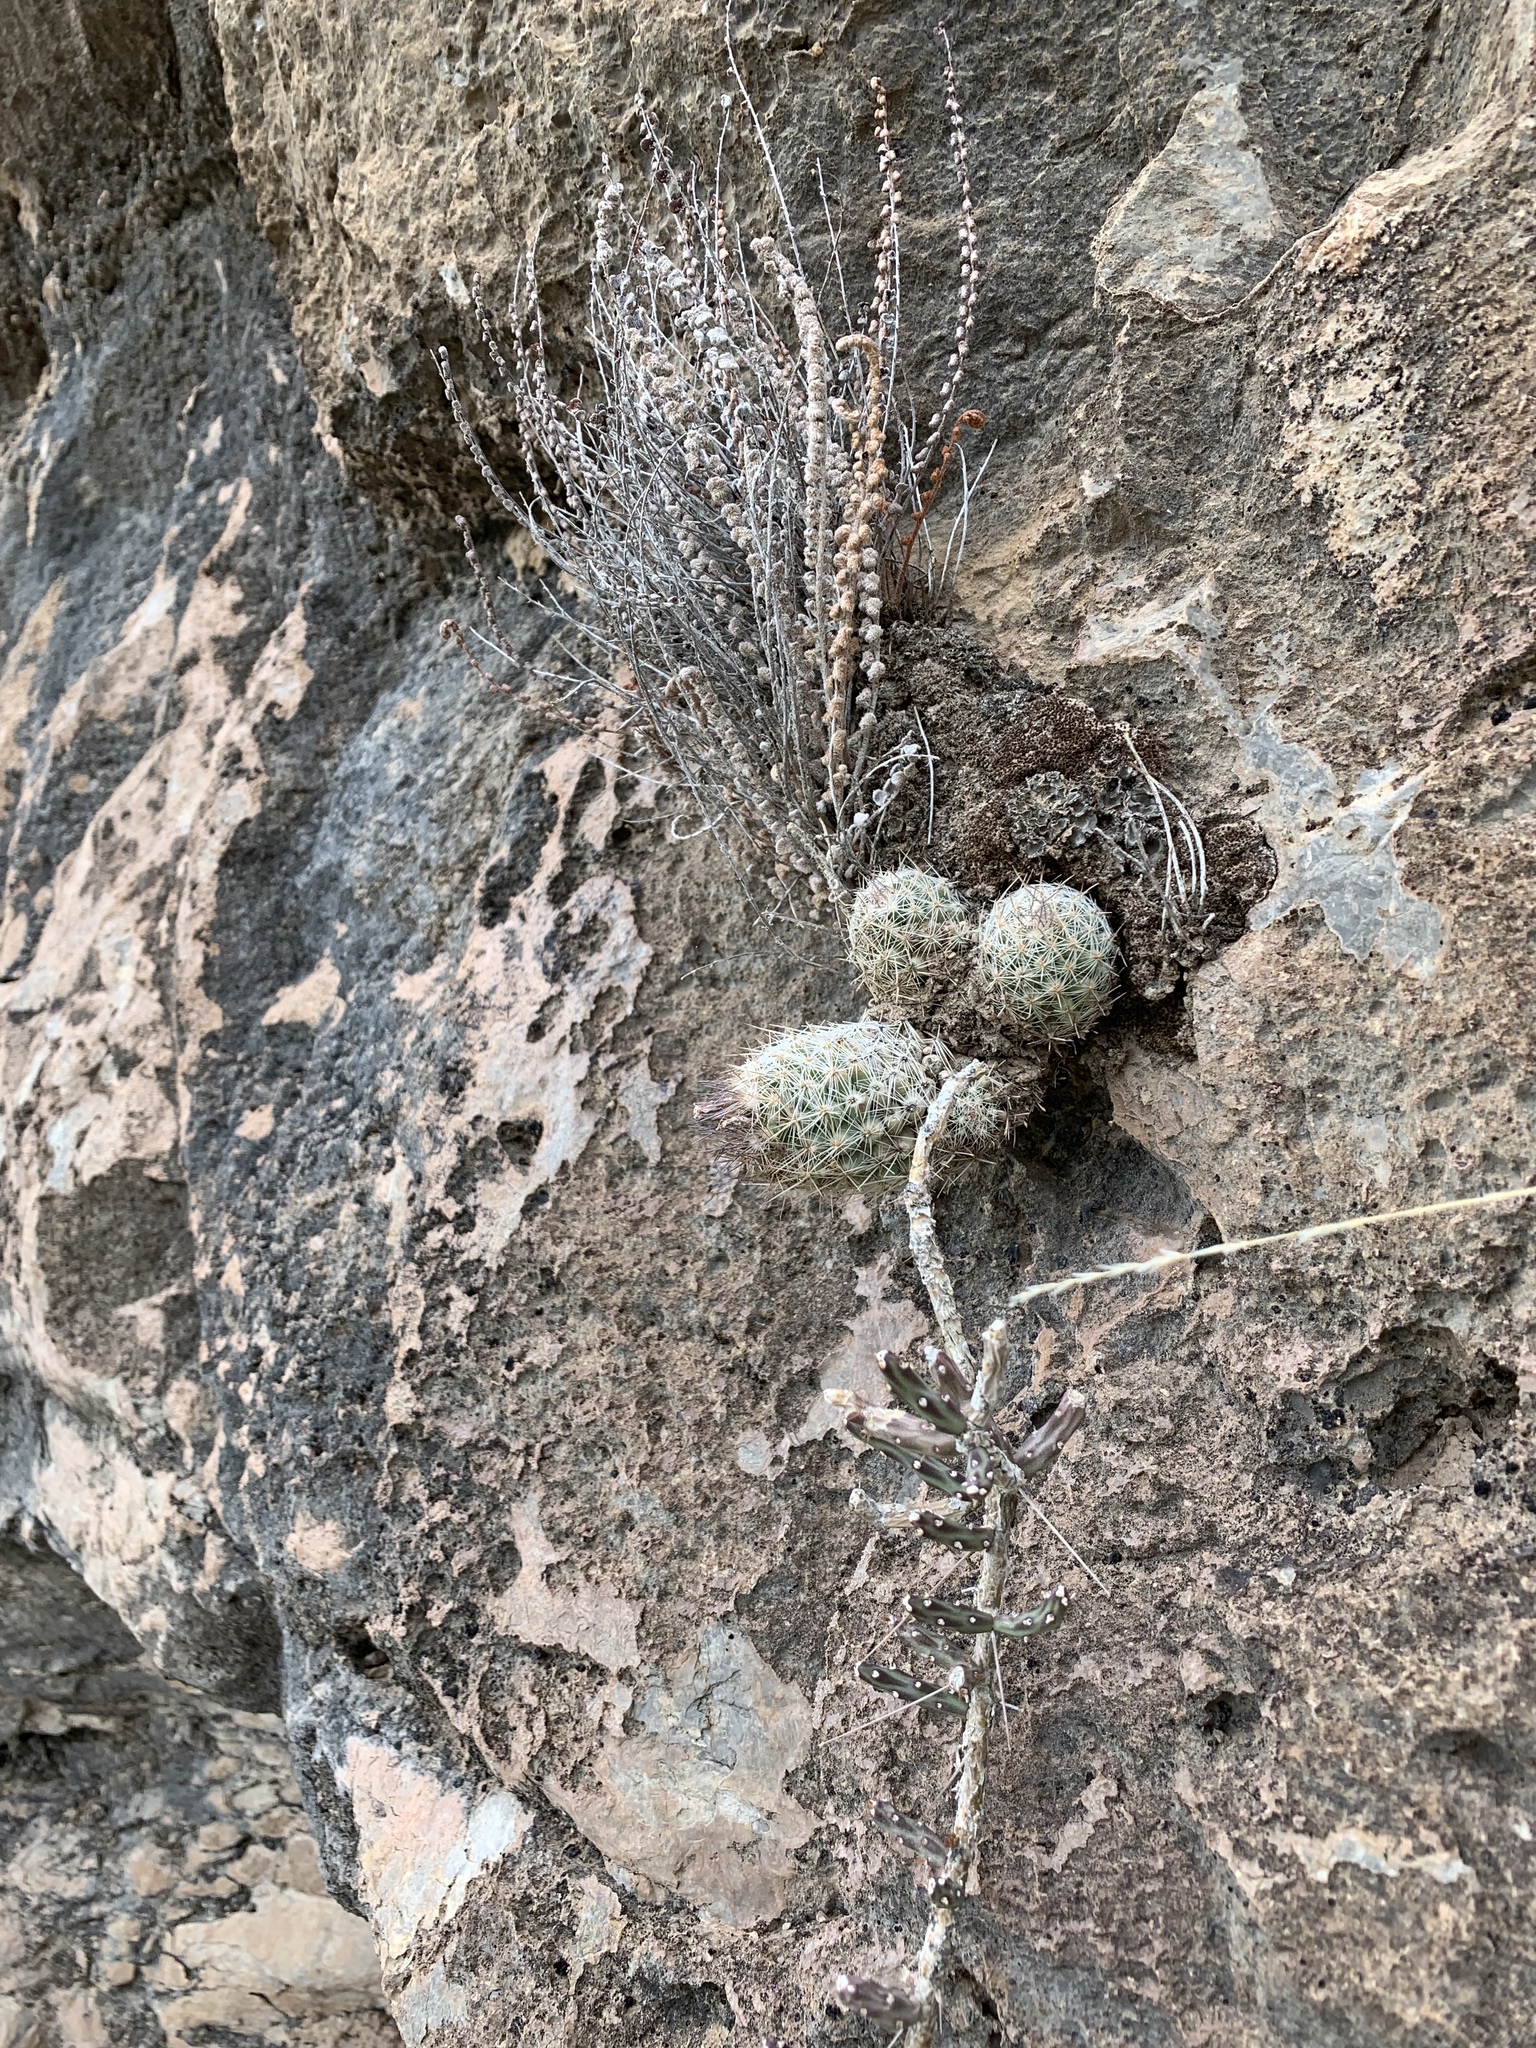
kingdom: Plantae
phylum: Tracheophyta
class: Magnoliopsida
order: Caryophyllales
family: Cactaceae
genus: Pelecyphora
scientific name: Pelecyphora tuberculosa
